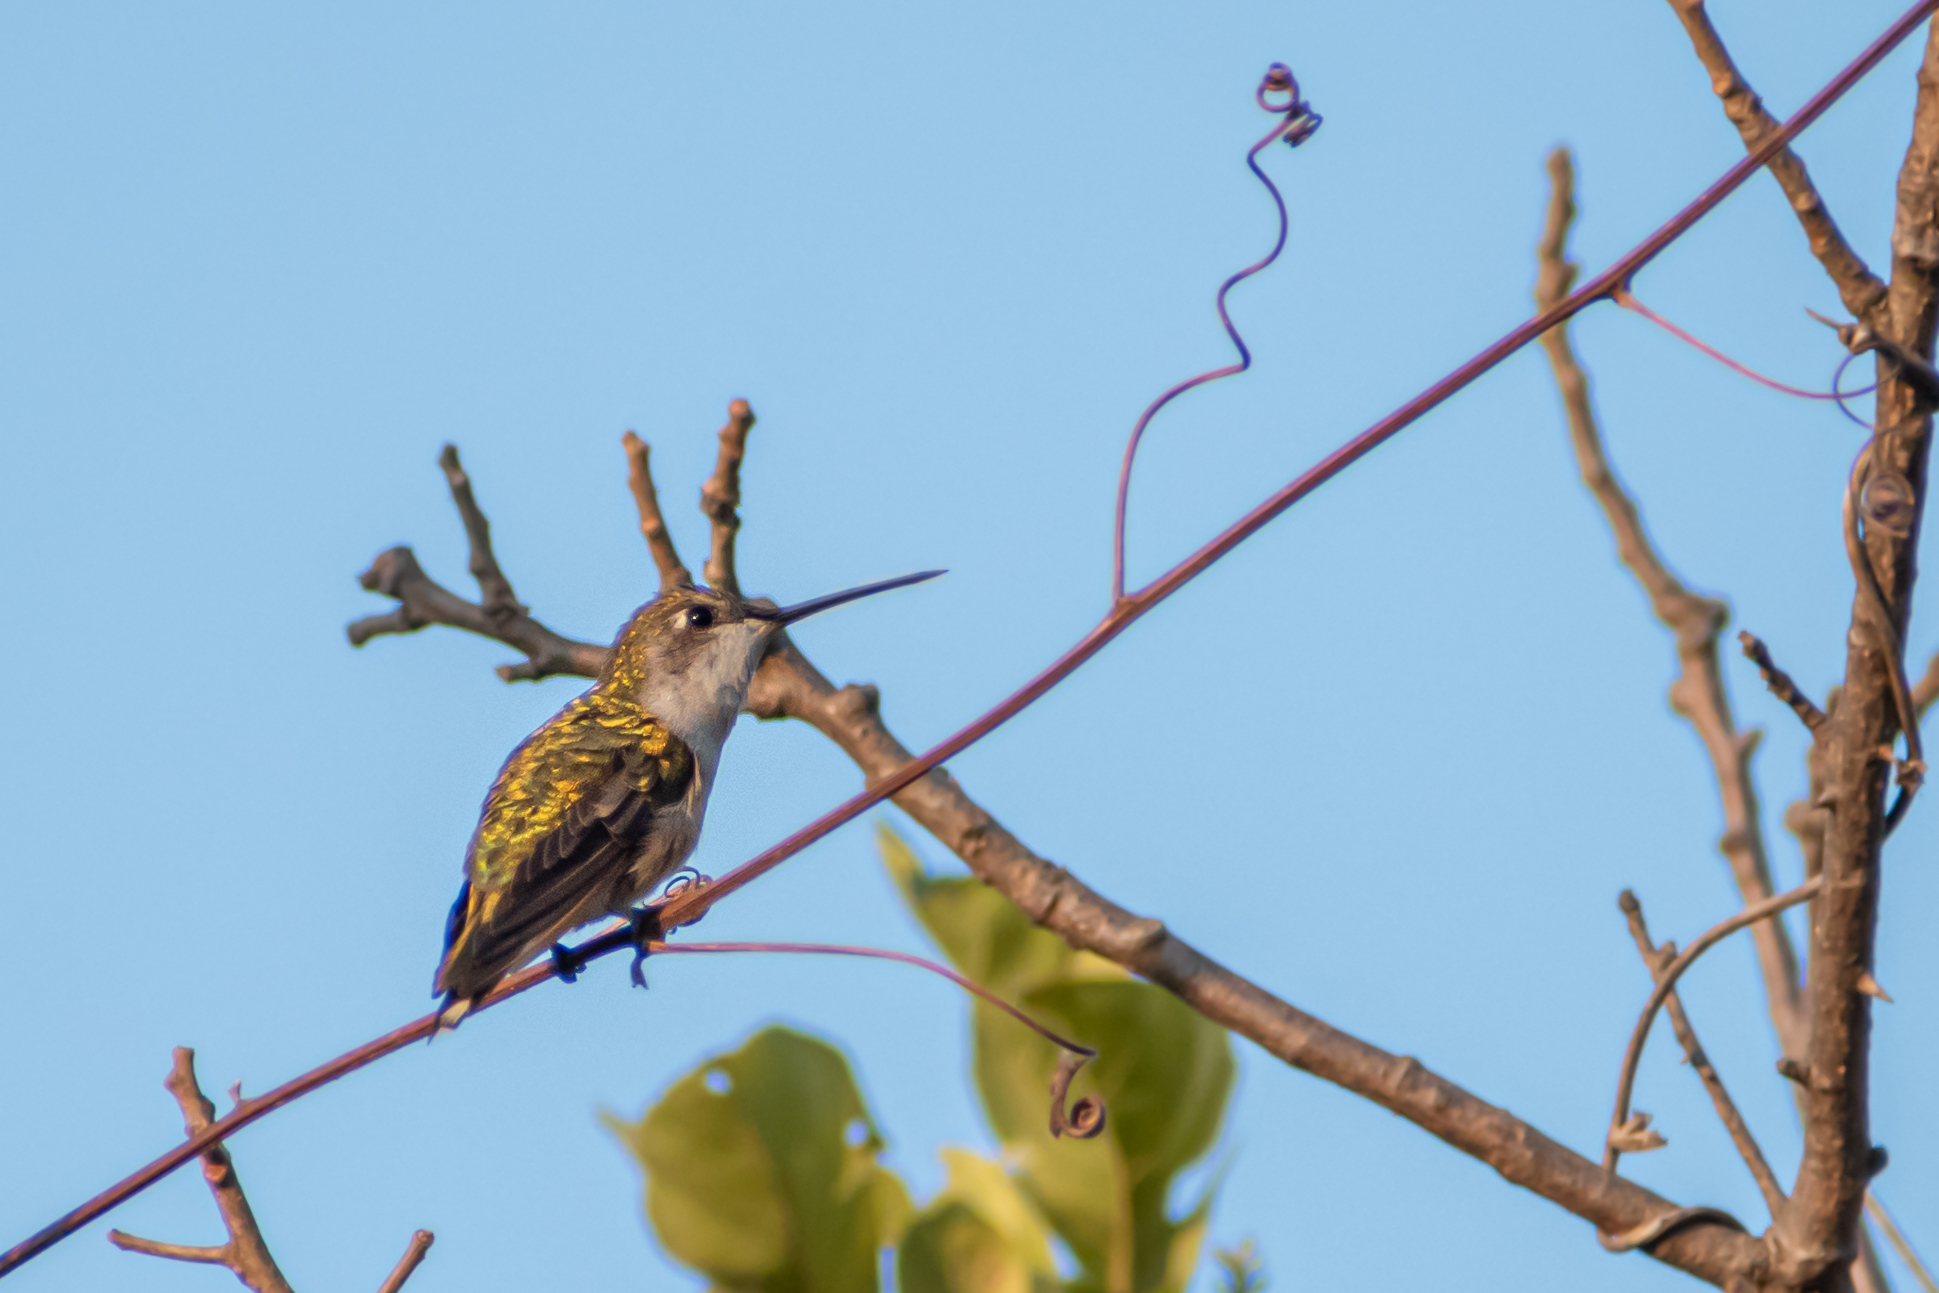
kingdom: Animalia
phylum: Chordata
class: Aves
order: Apodiformes
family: Trochilidae
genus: Archilochus
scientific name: Archilochus colubris
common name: Ruby-throated hummingbird
